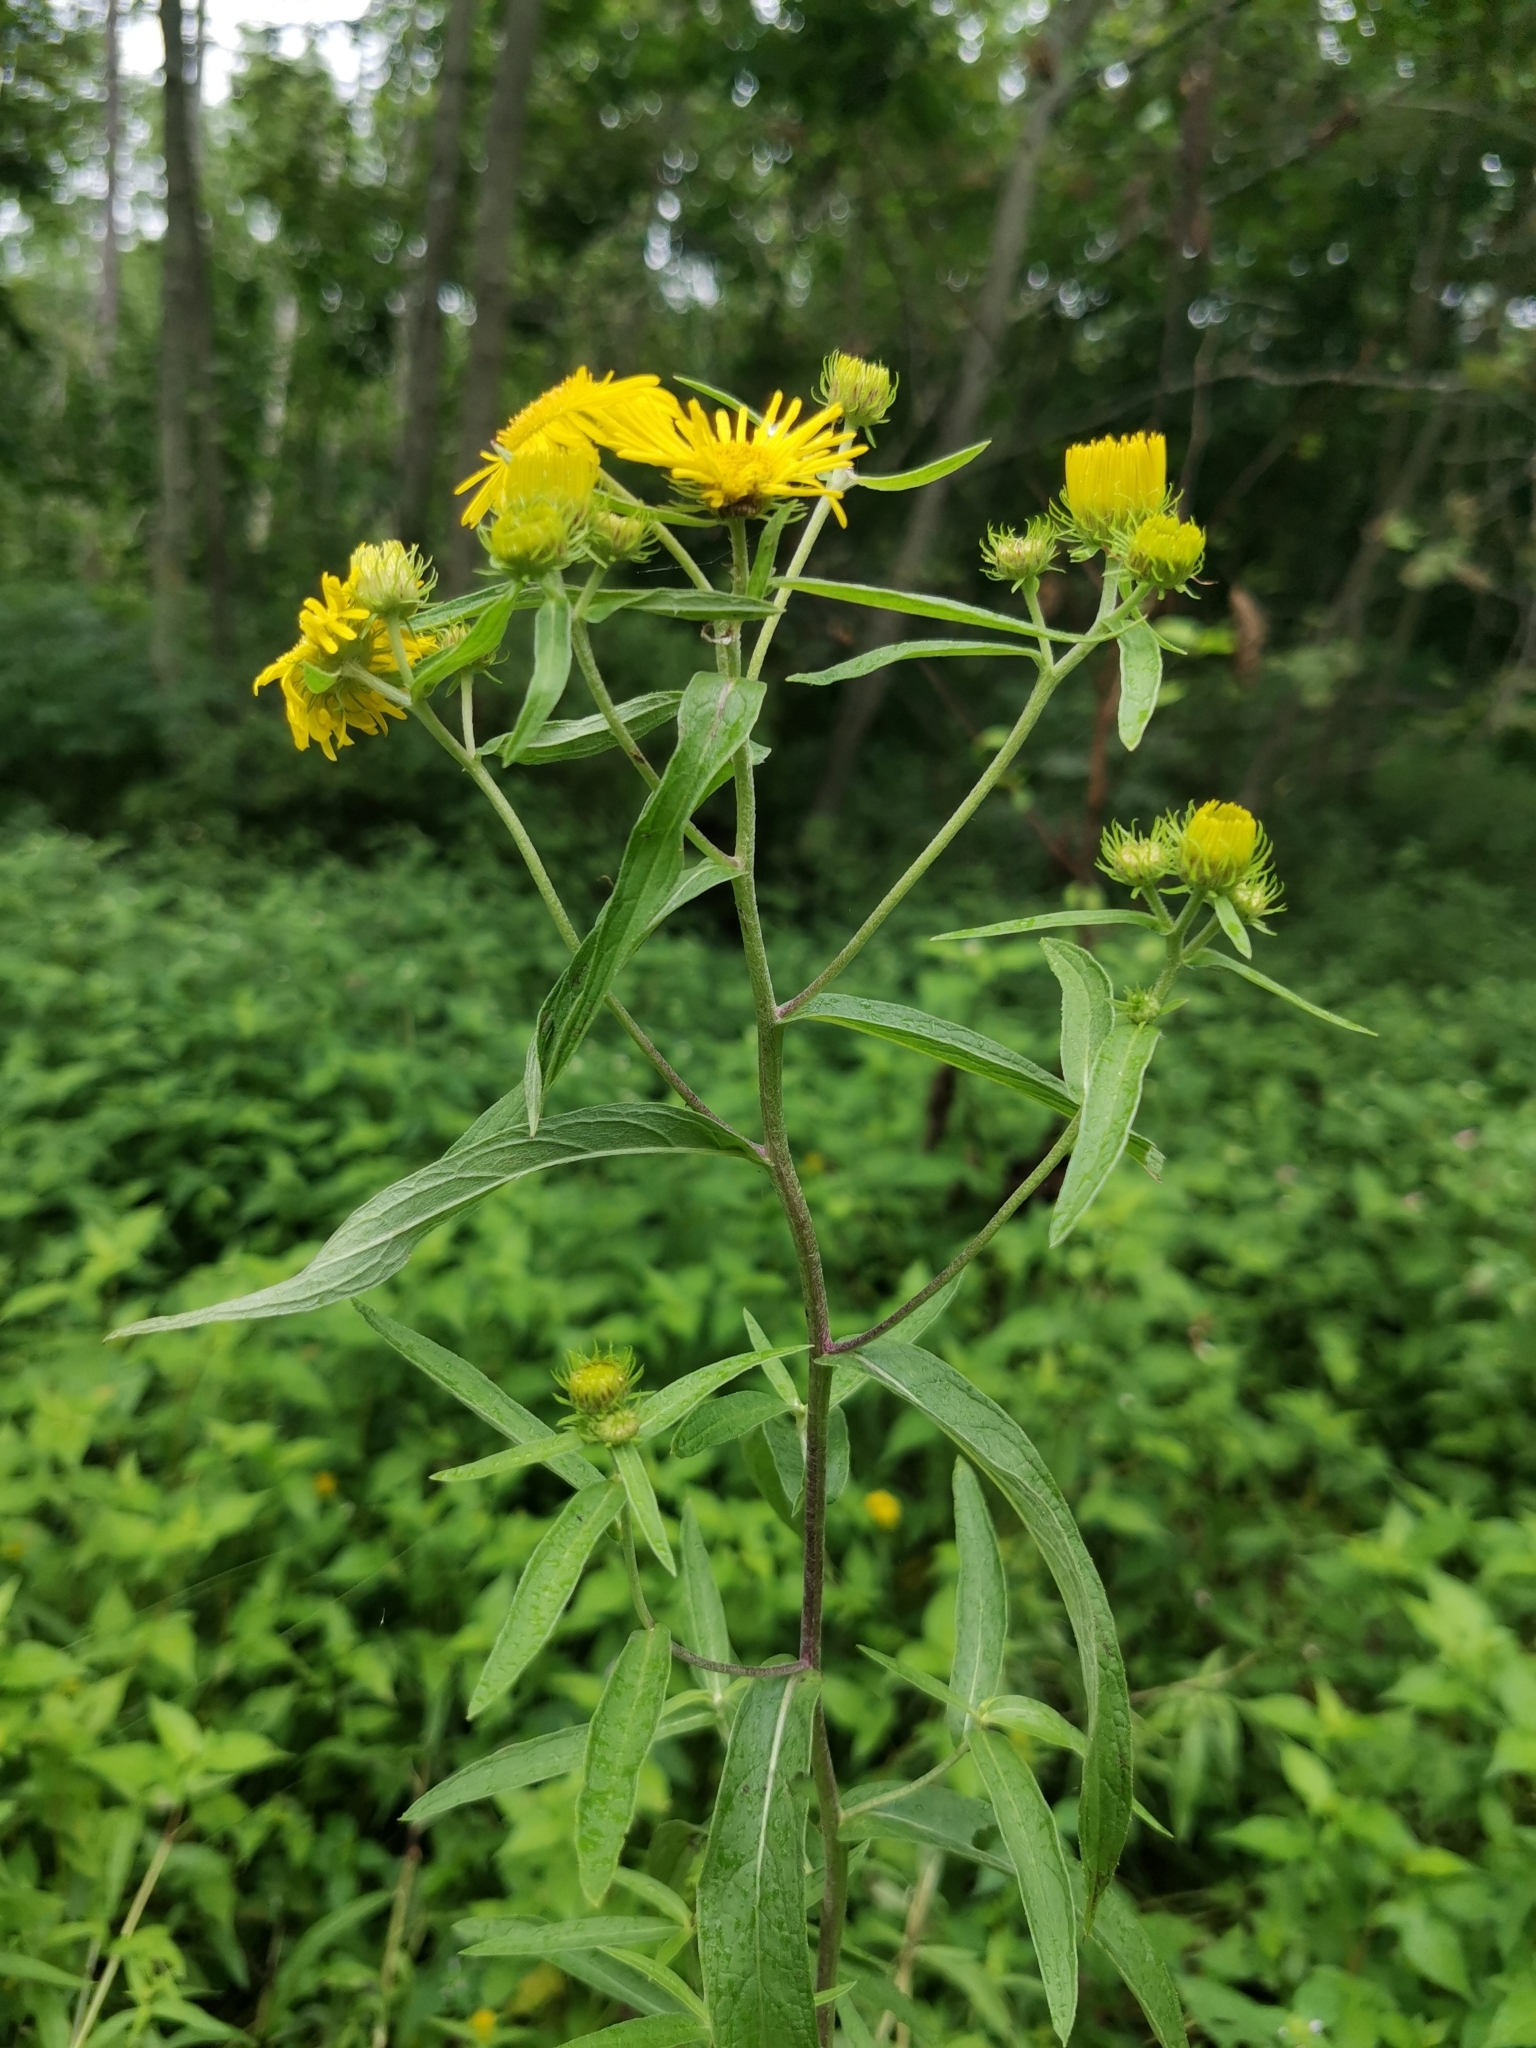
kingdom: Plantae
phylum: Tracheophyta
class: Magnoliopsida
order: Asterales
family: Asteraceae
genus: Inula
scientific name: Inula japonica
